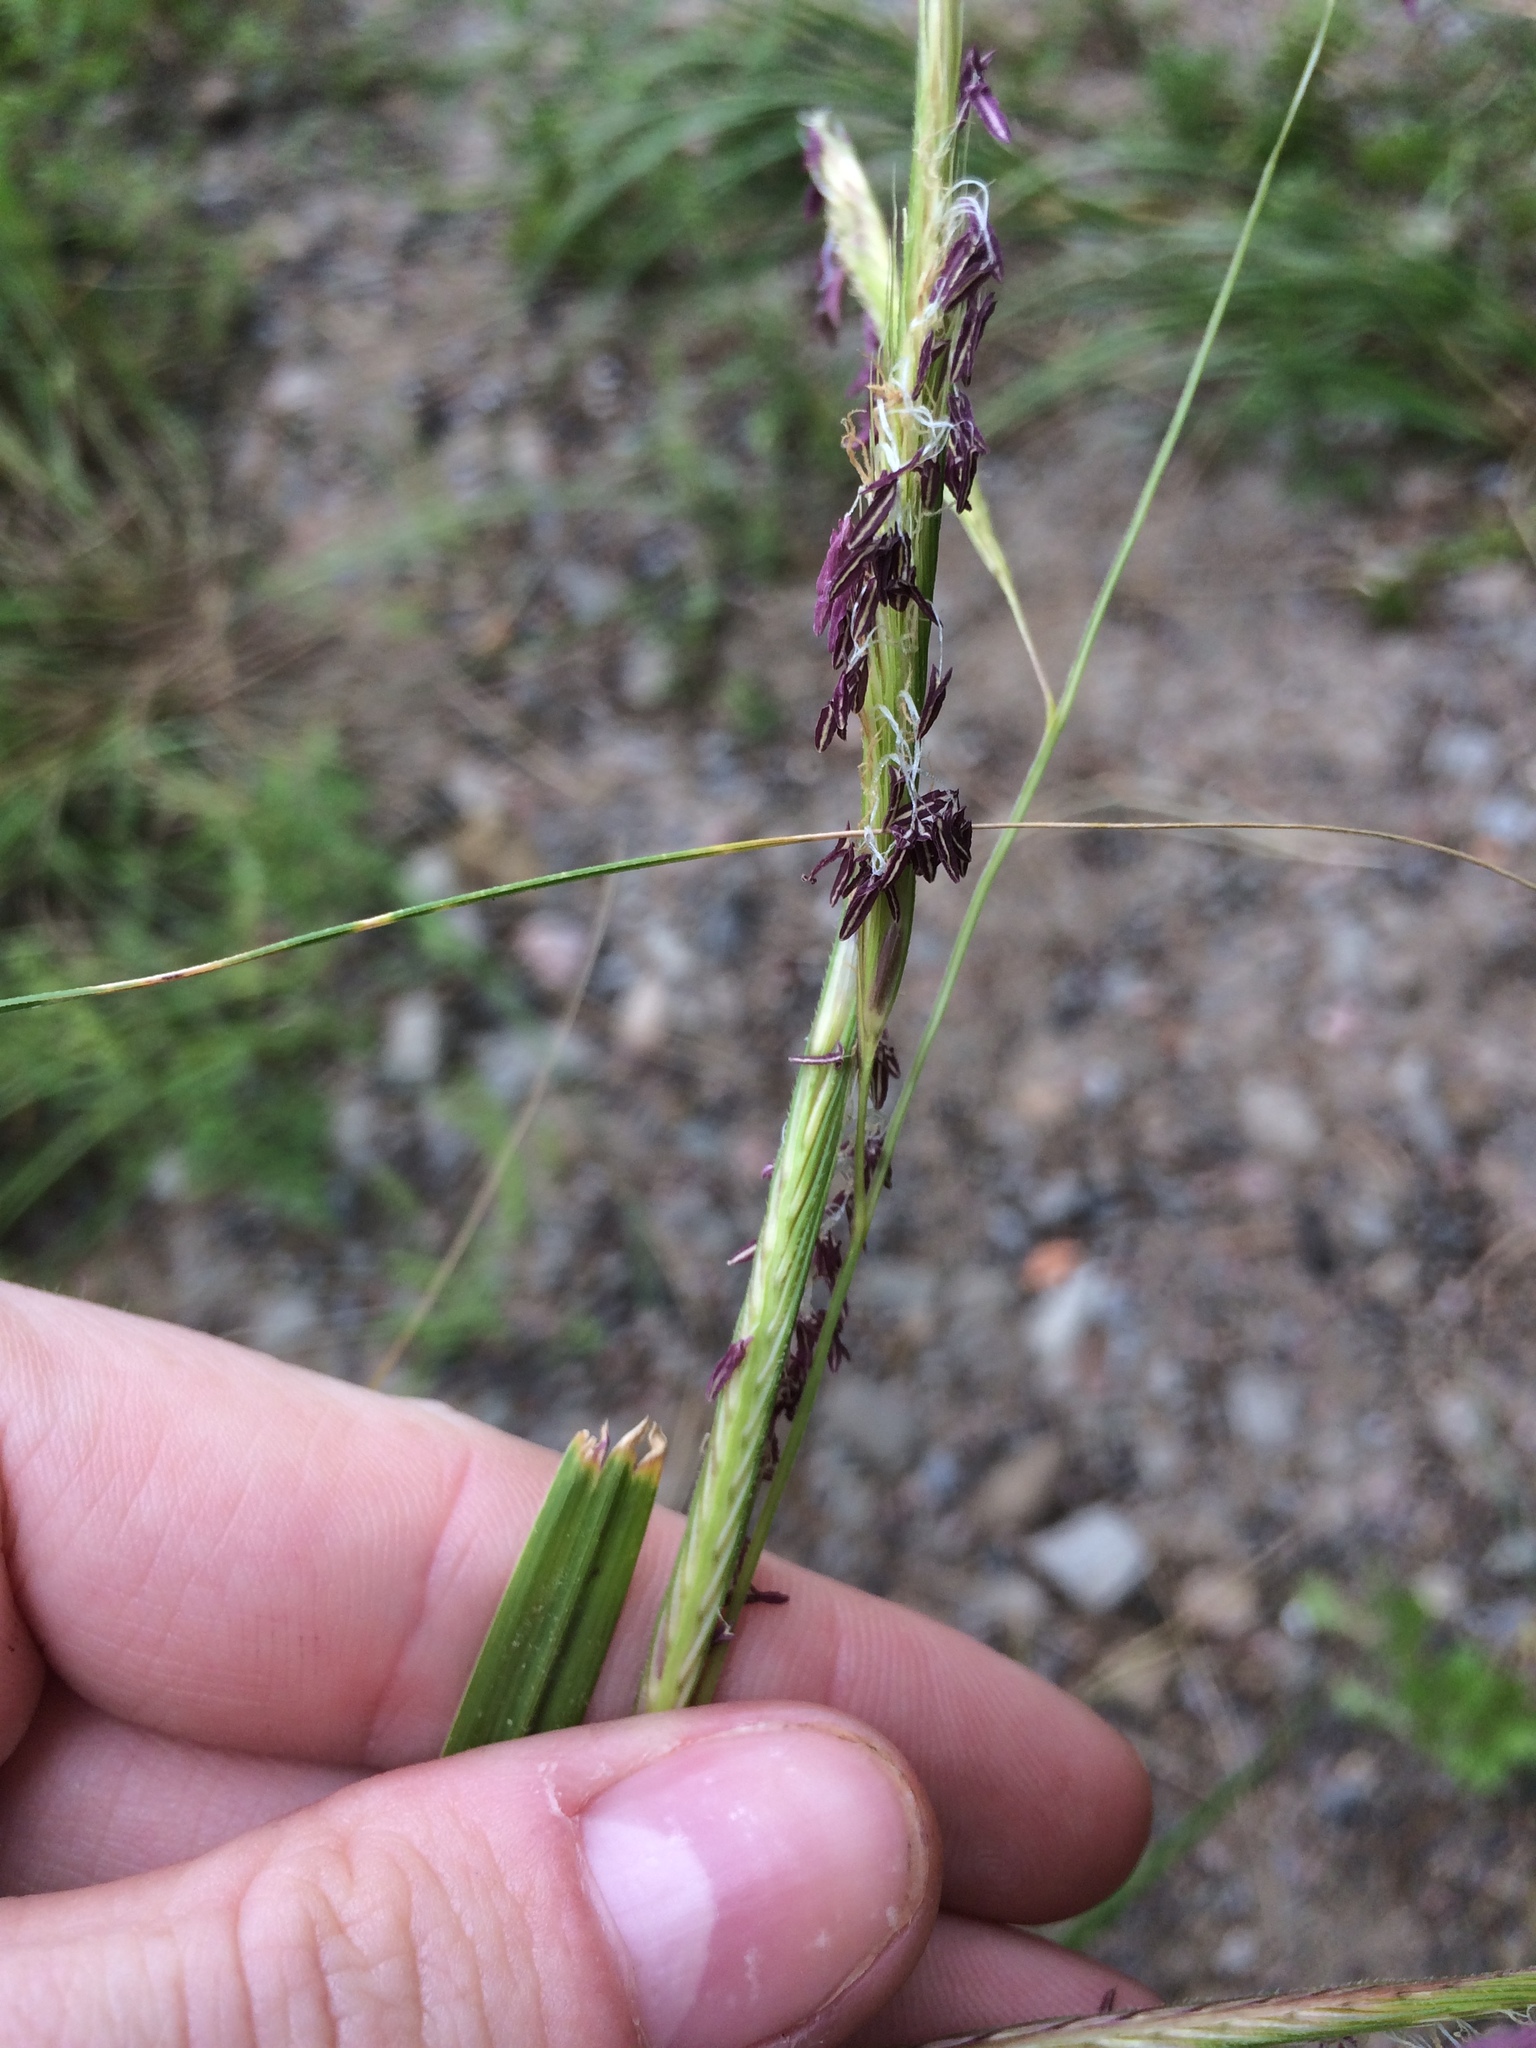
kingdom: Plantae
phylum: Tracheophyta
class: Liliopsida
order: Poales
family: Poaceae
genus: Sporobolus
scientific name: Sporobolus michauxianus
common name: Freshwater cordgrass
